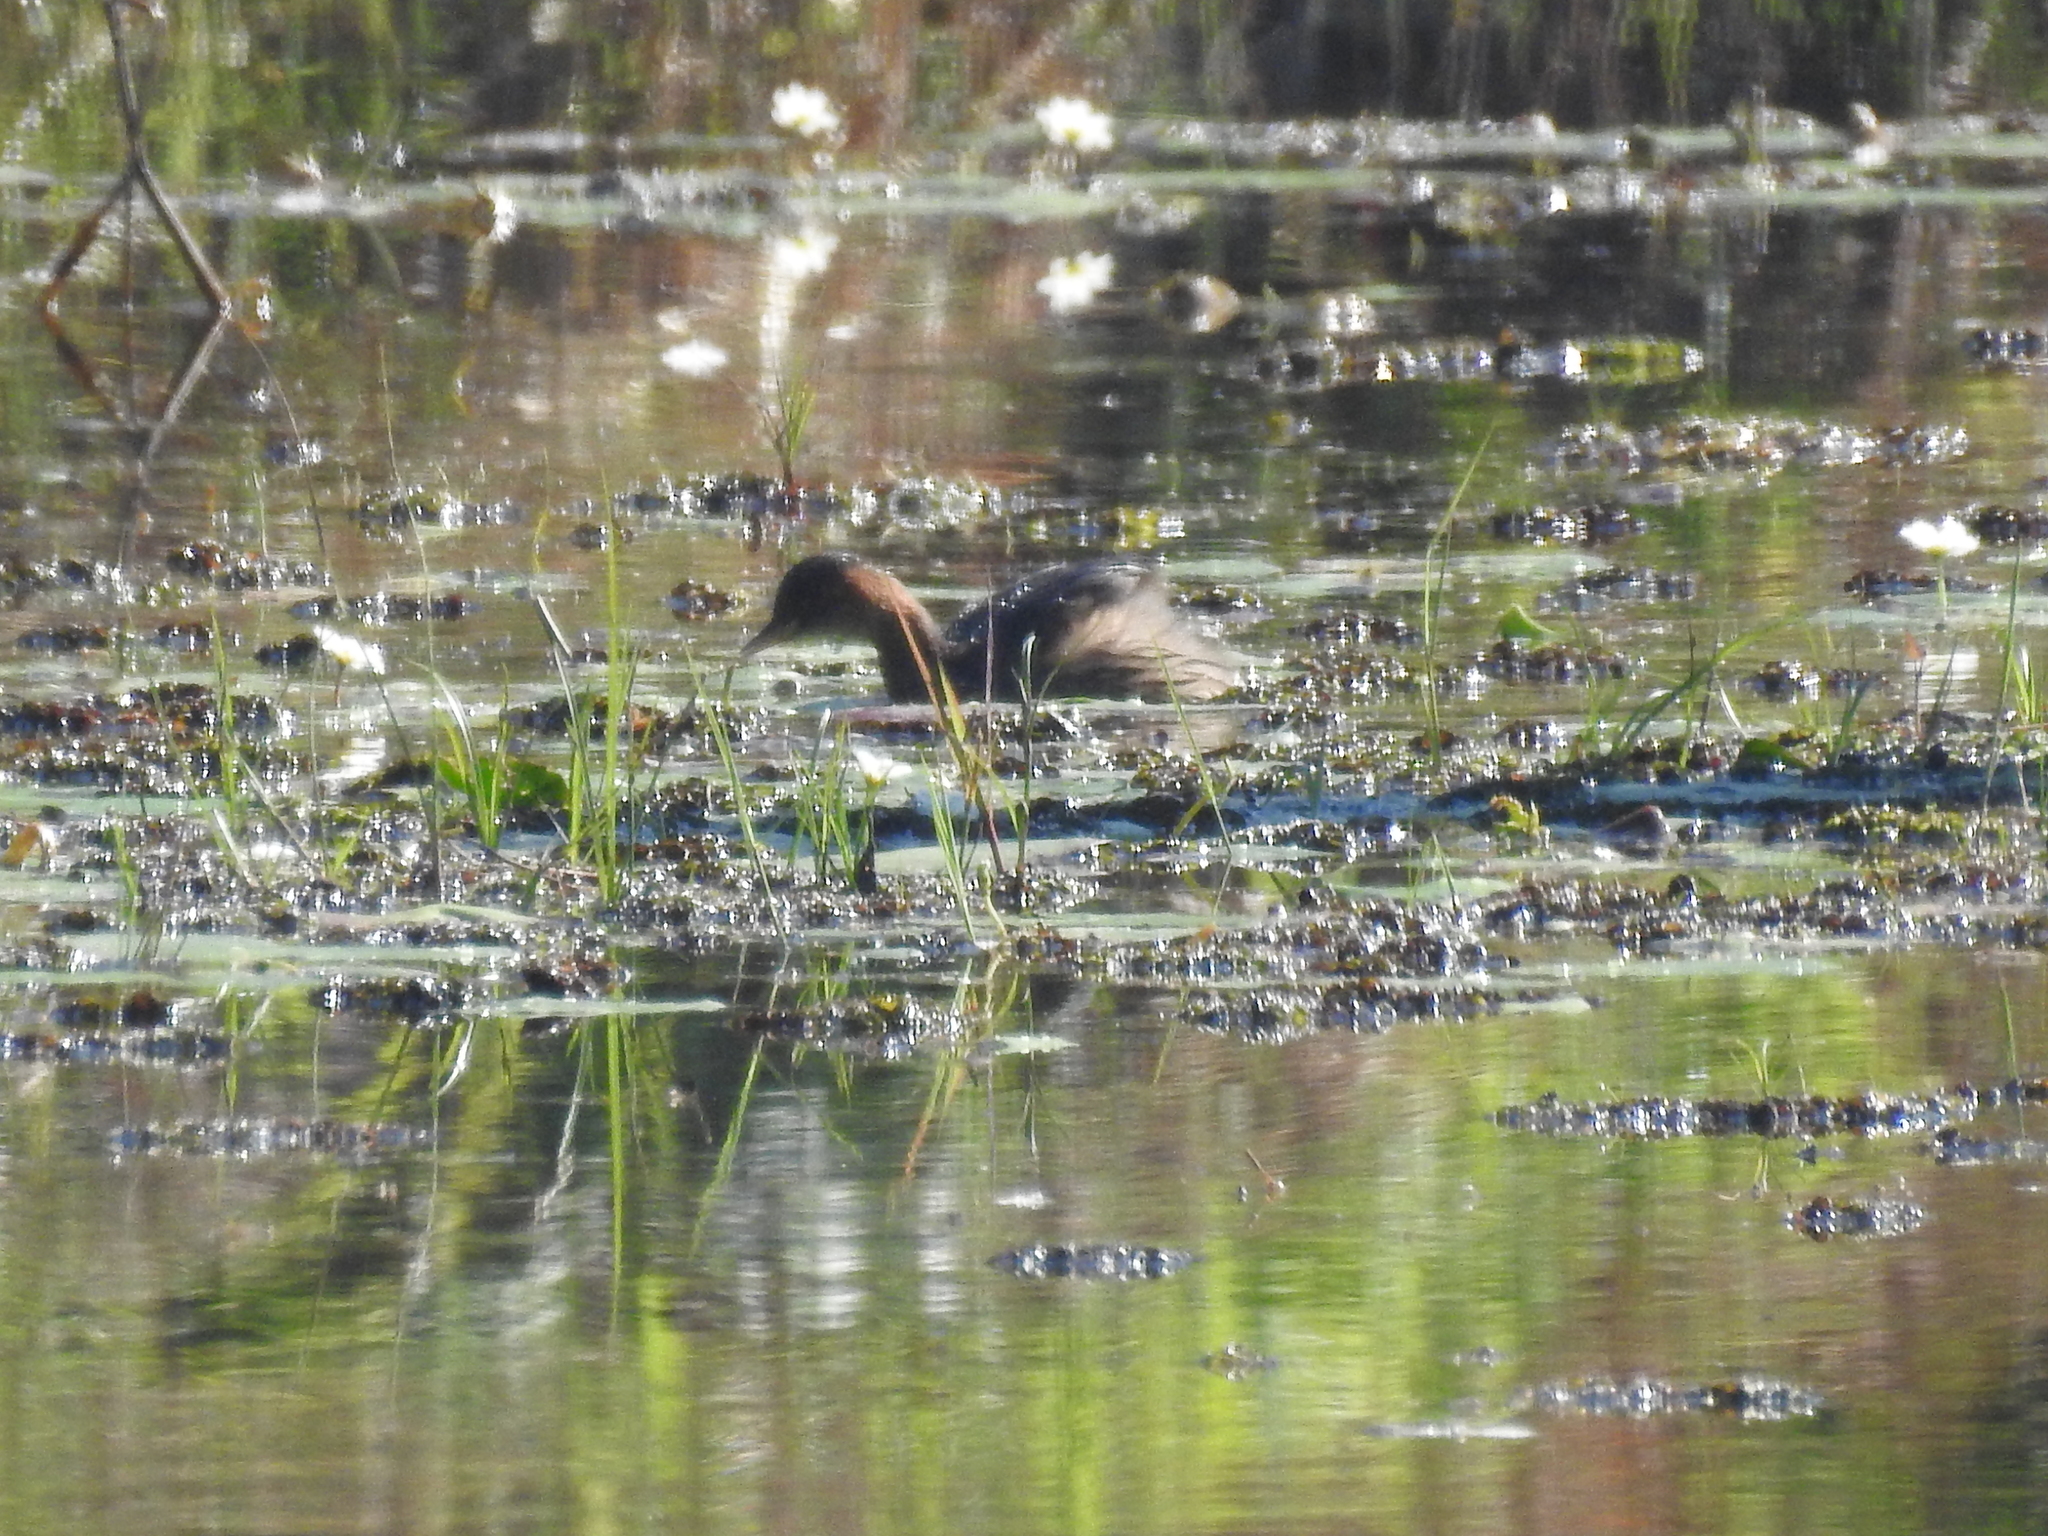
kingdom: Animalia
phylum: Chordata
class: Aves
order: Podicipediformes
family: Podicipedidae
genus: Tachybaptus
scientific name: Tachybaptus ruficollis
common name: Little grebe
